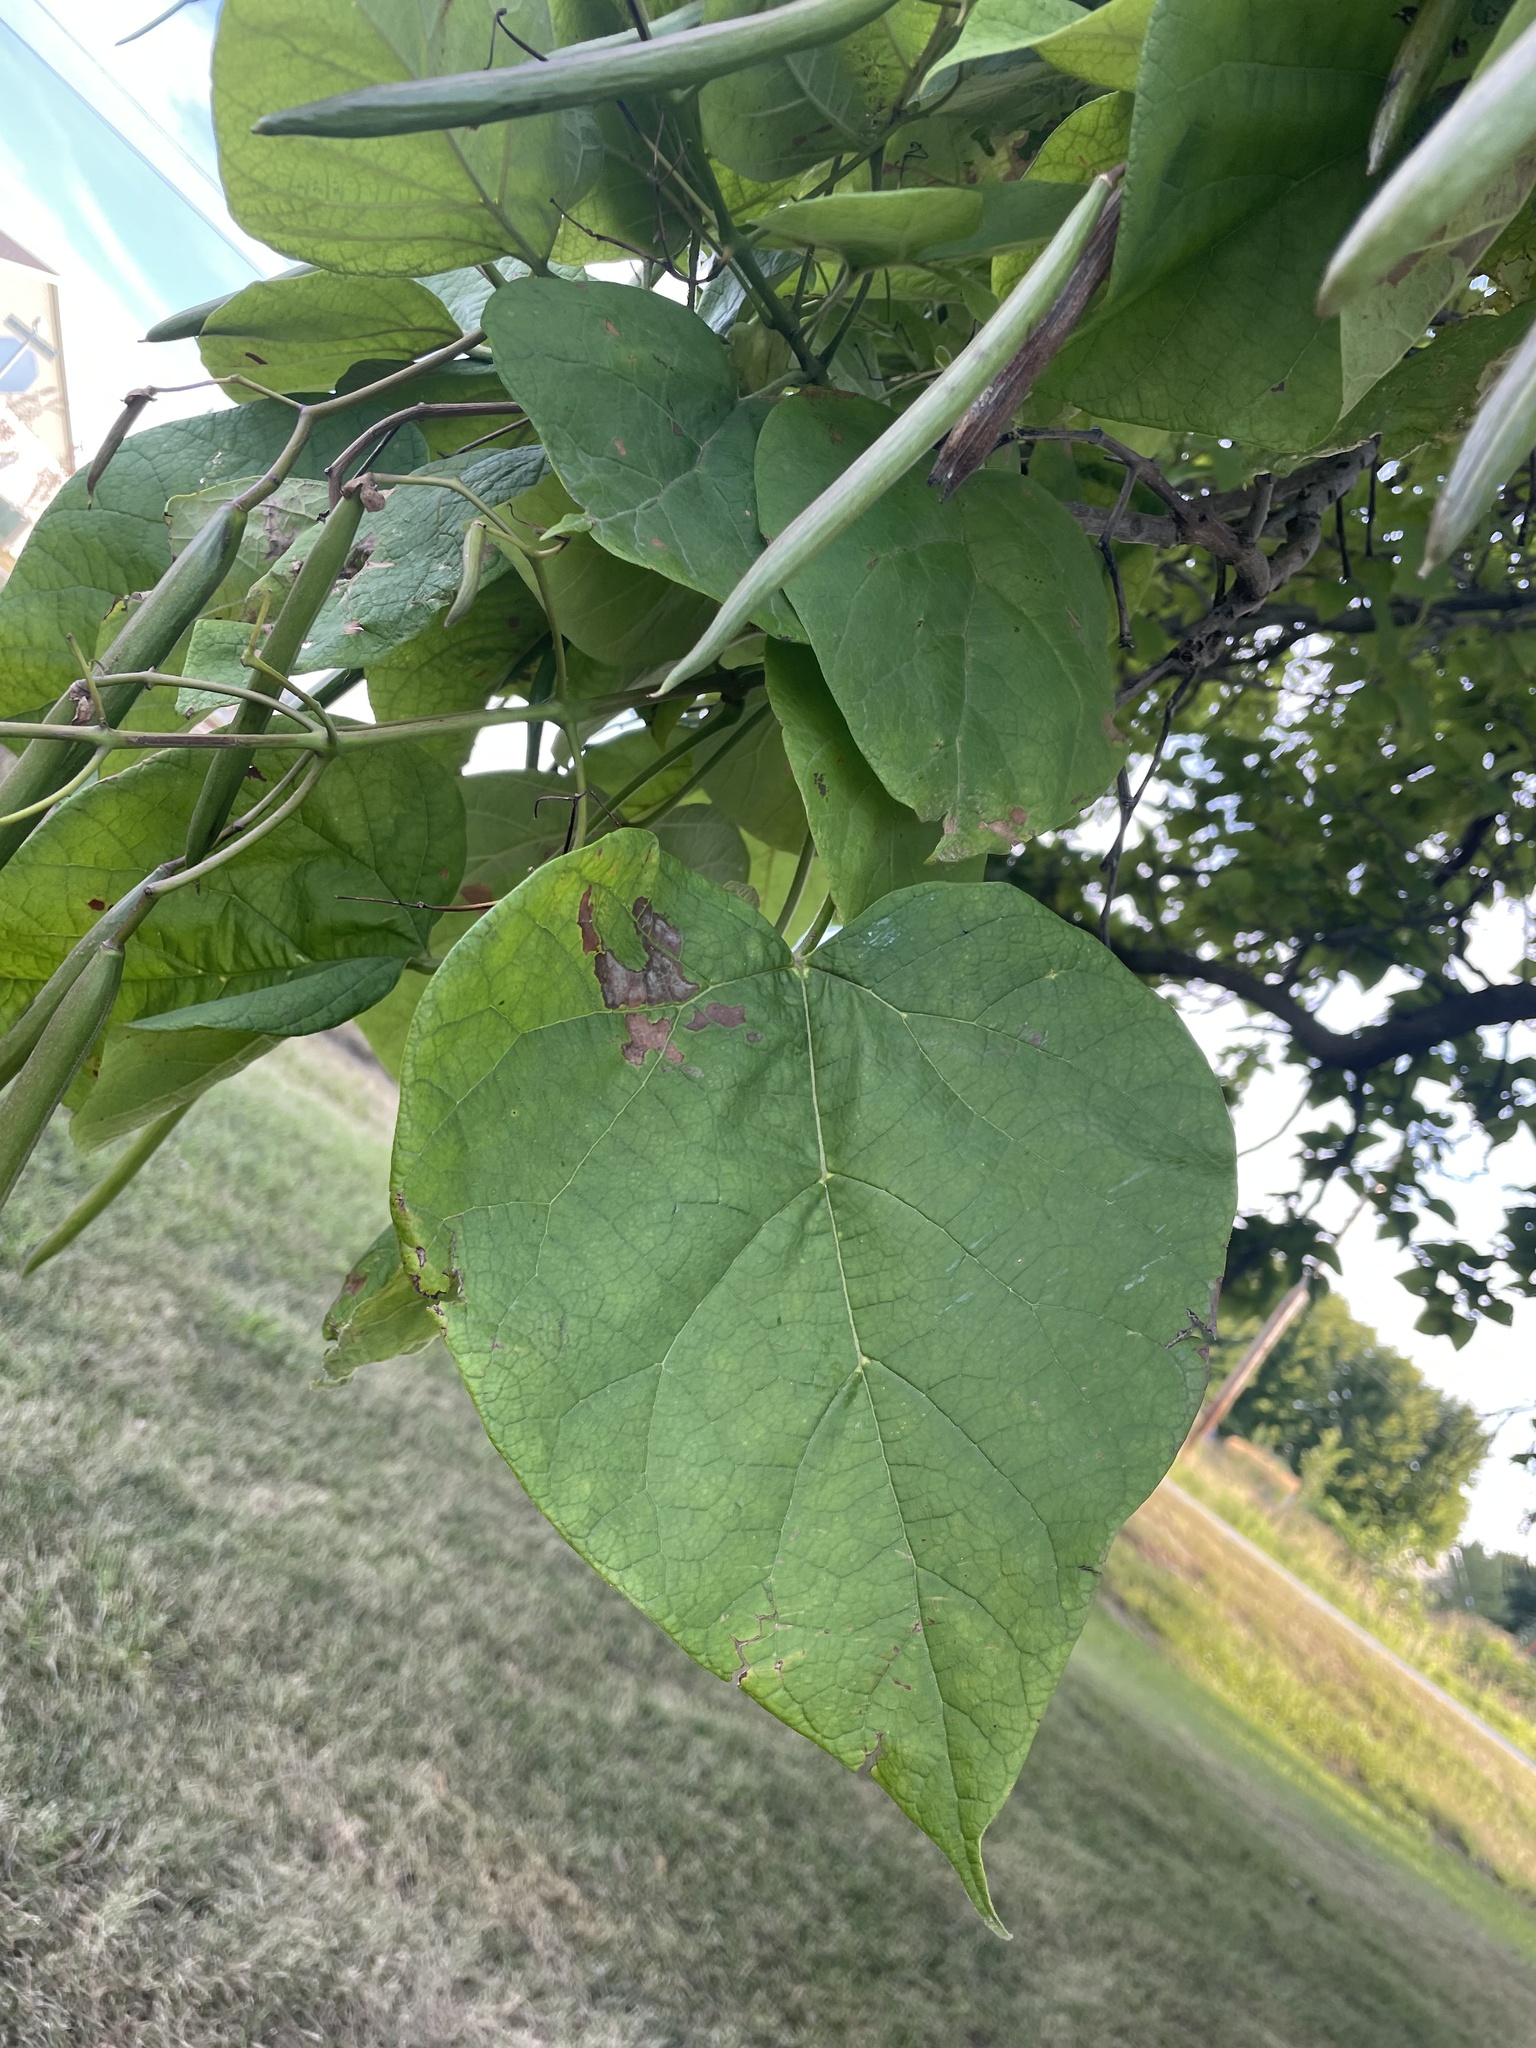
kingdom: Plantae
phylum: Tracheophyta
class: Magnoliopsida
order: Lamiales
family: Bignoniaceae
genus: Catalpa
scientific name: Catalpa speciosa
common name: Northern catalpa
